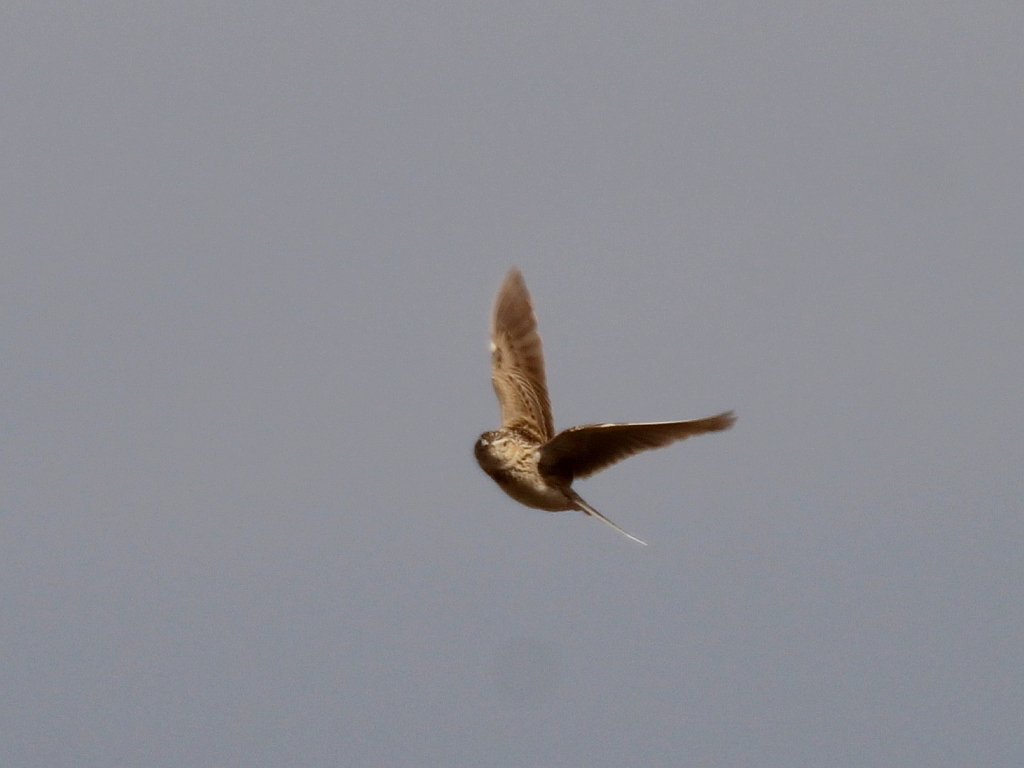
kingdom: Animalia
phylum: Chordata
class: Aves
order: Passeriformes
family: Alaudidae
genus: Alauda
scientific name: Alauda arvensis
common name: Eurasian skylark
